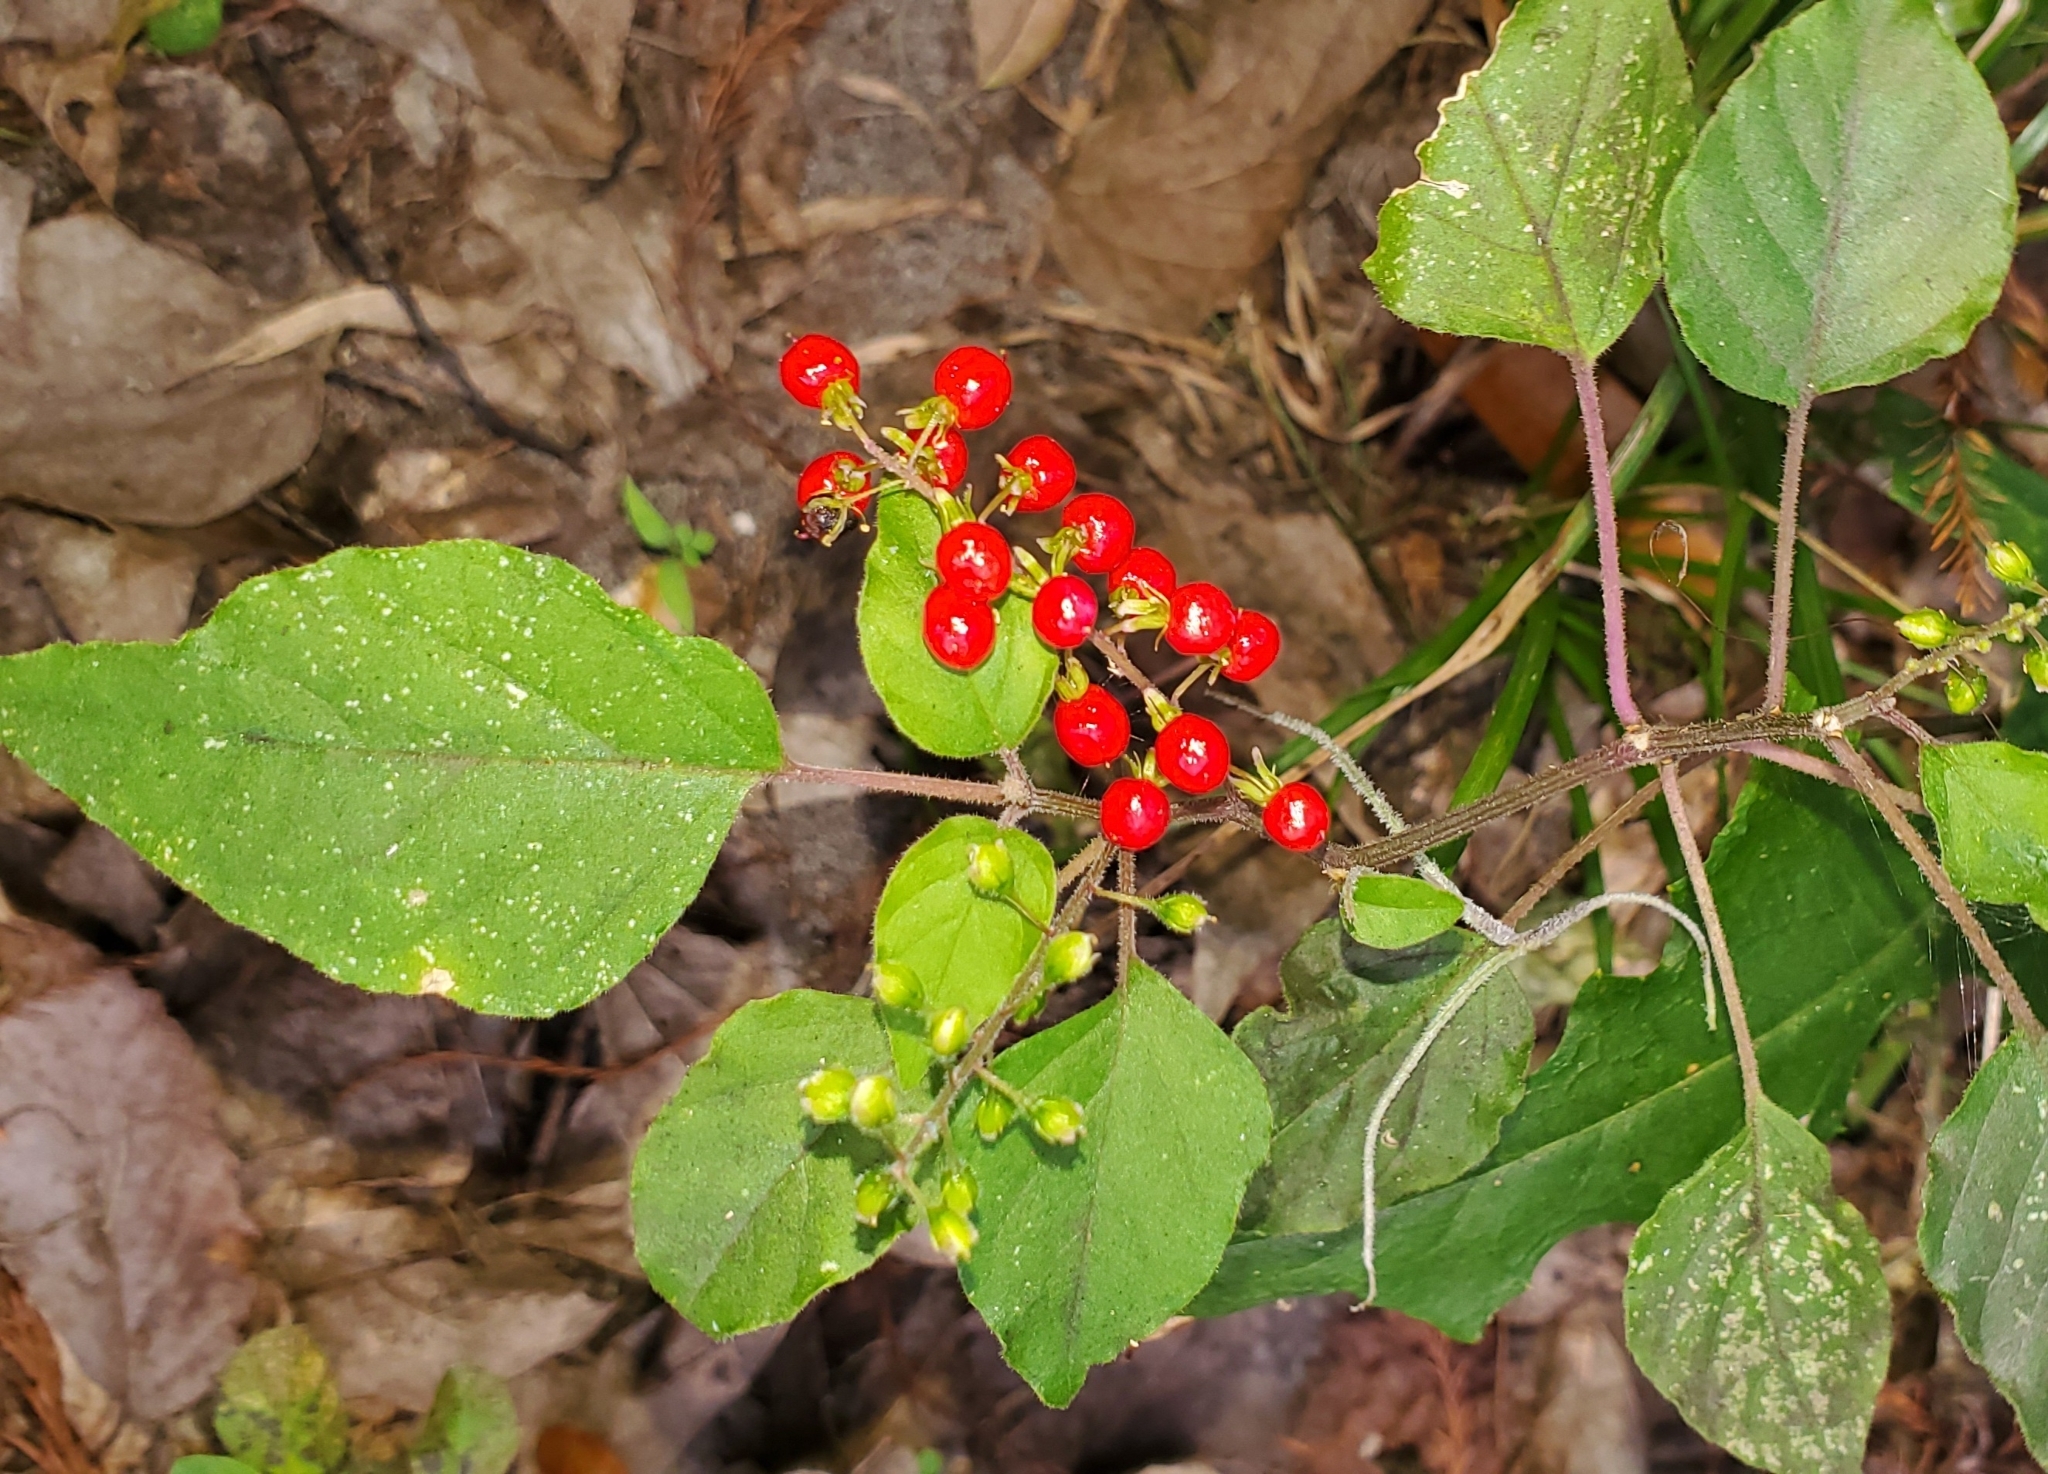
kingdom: Plantae
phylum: Tracheophyta
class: Magnoliopsida
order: Caryophyllales
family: Phytolaccaceae
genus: Rivina
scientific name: Rivina humilis
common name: Rougeplant
